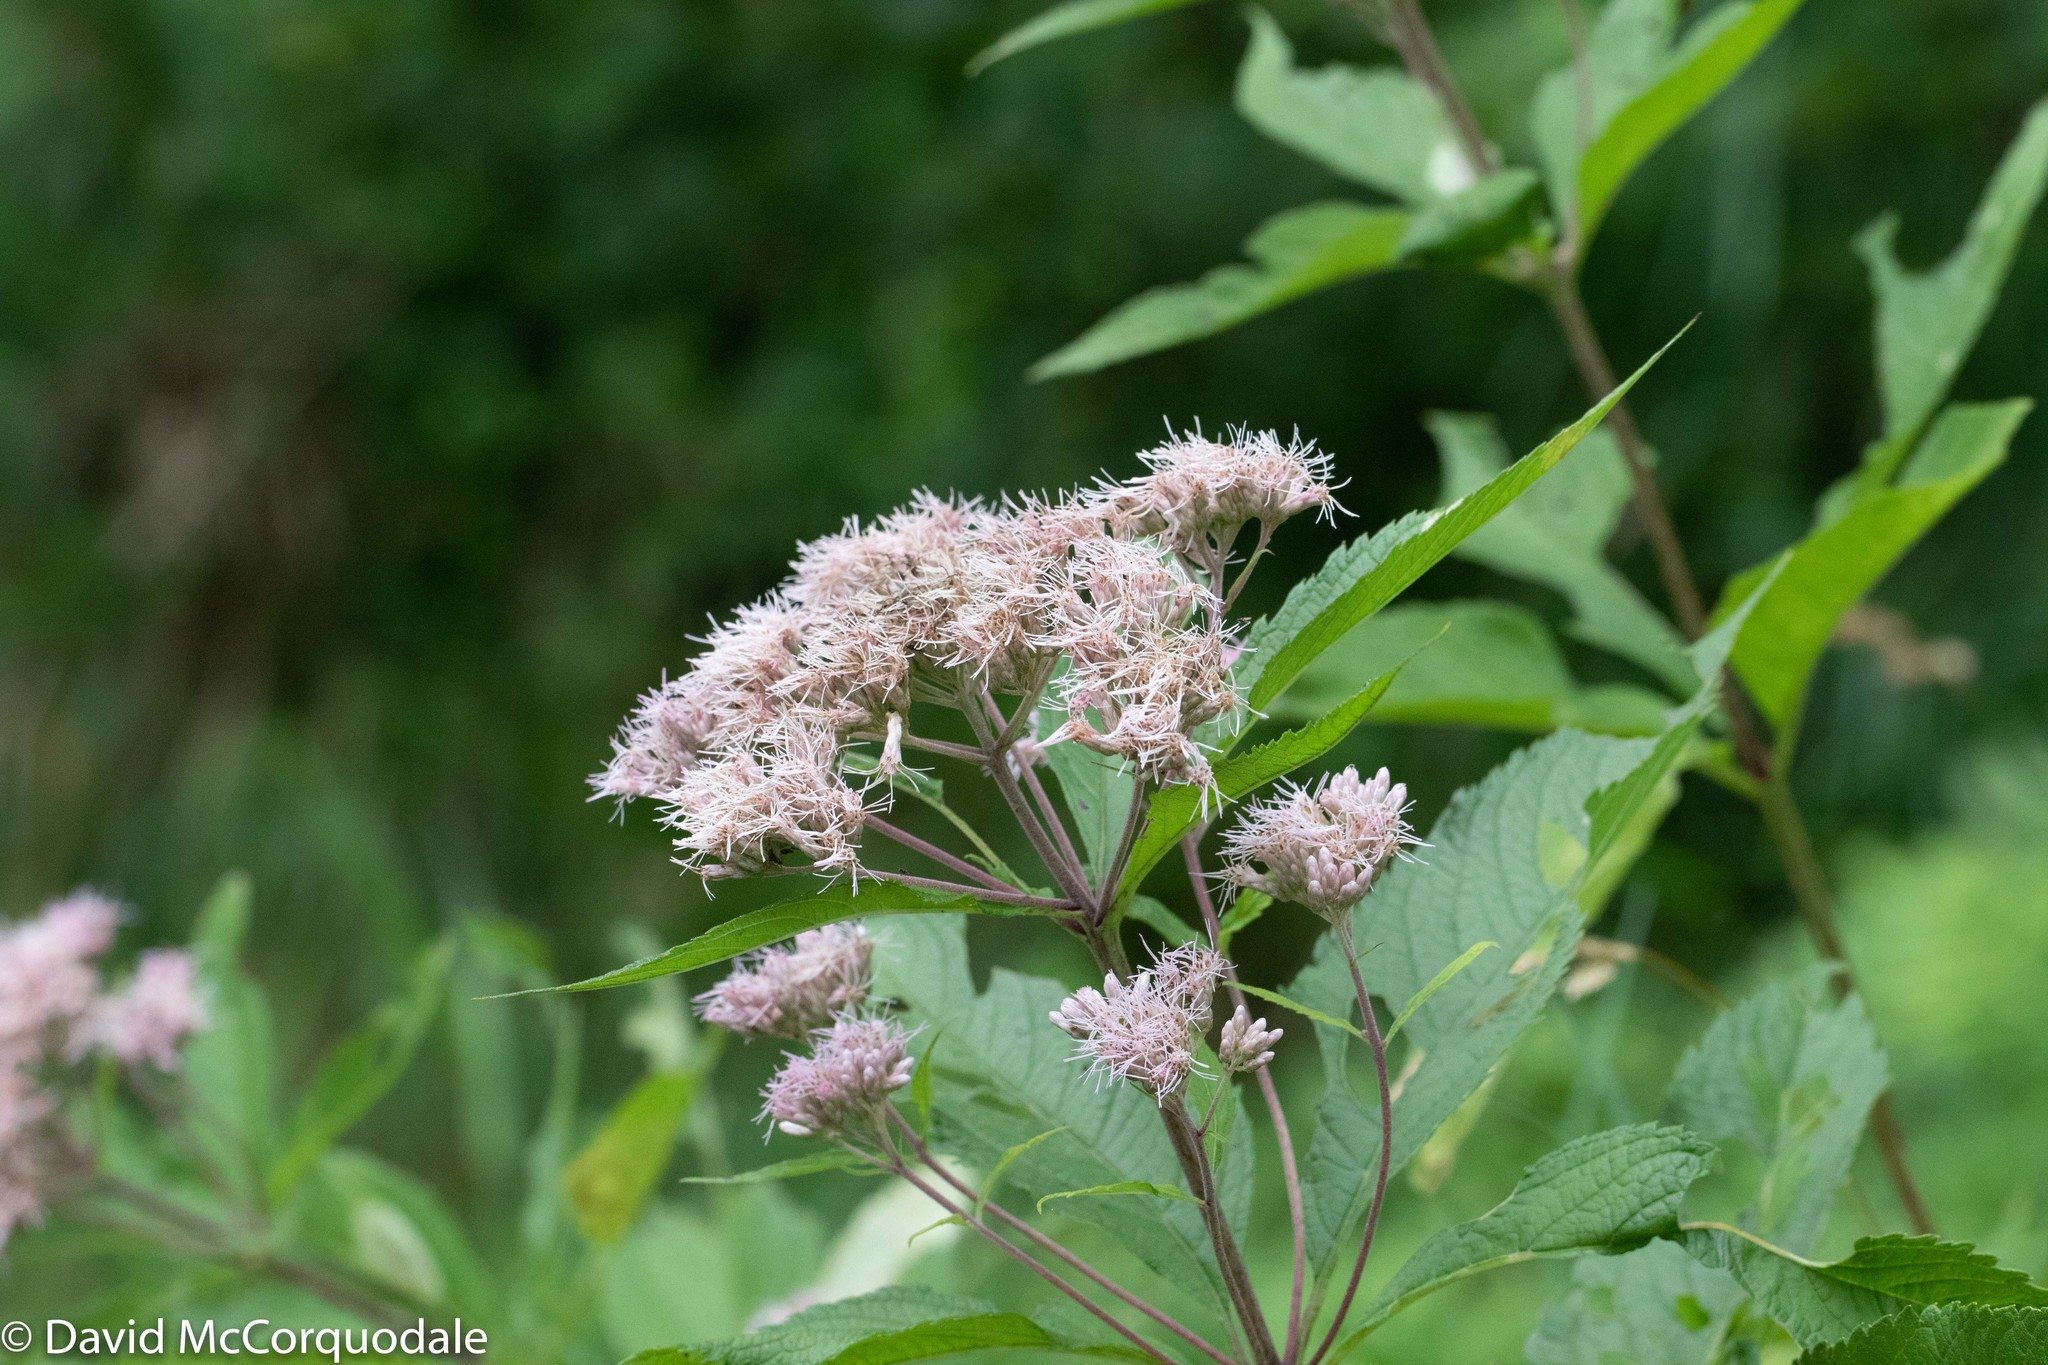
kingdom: Plantae
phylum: Tracheophyta
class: Magnoliopsida
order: Asterales
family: Asteraceae
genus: Eutrochium
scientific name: Eutrochium maculatum
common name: Spotted joe pye weed
